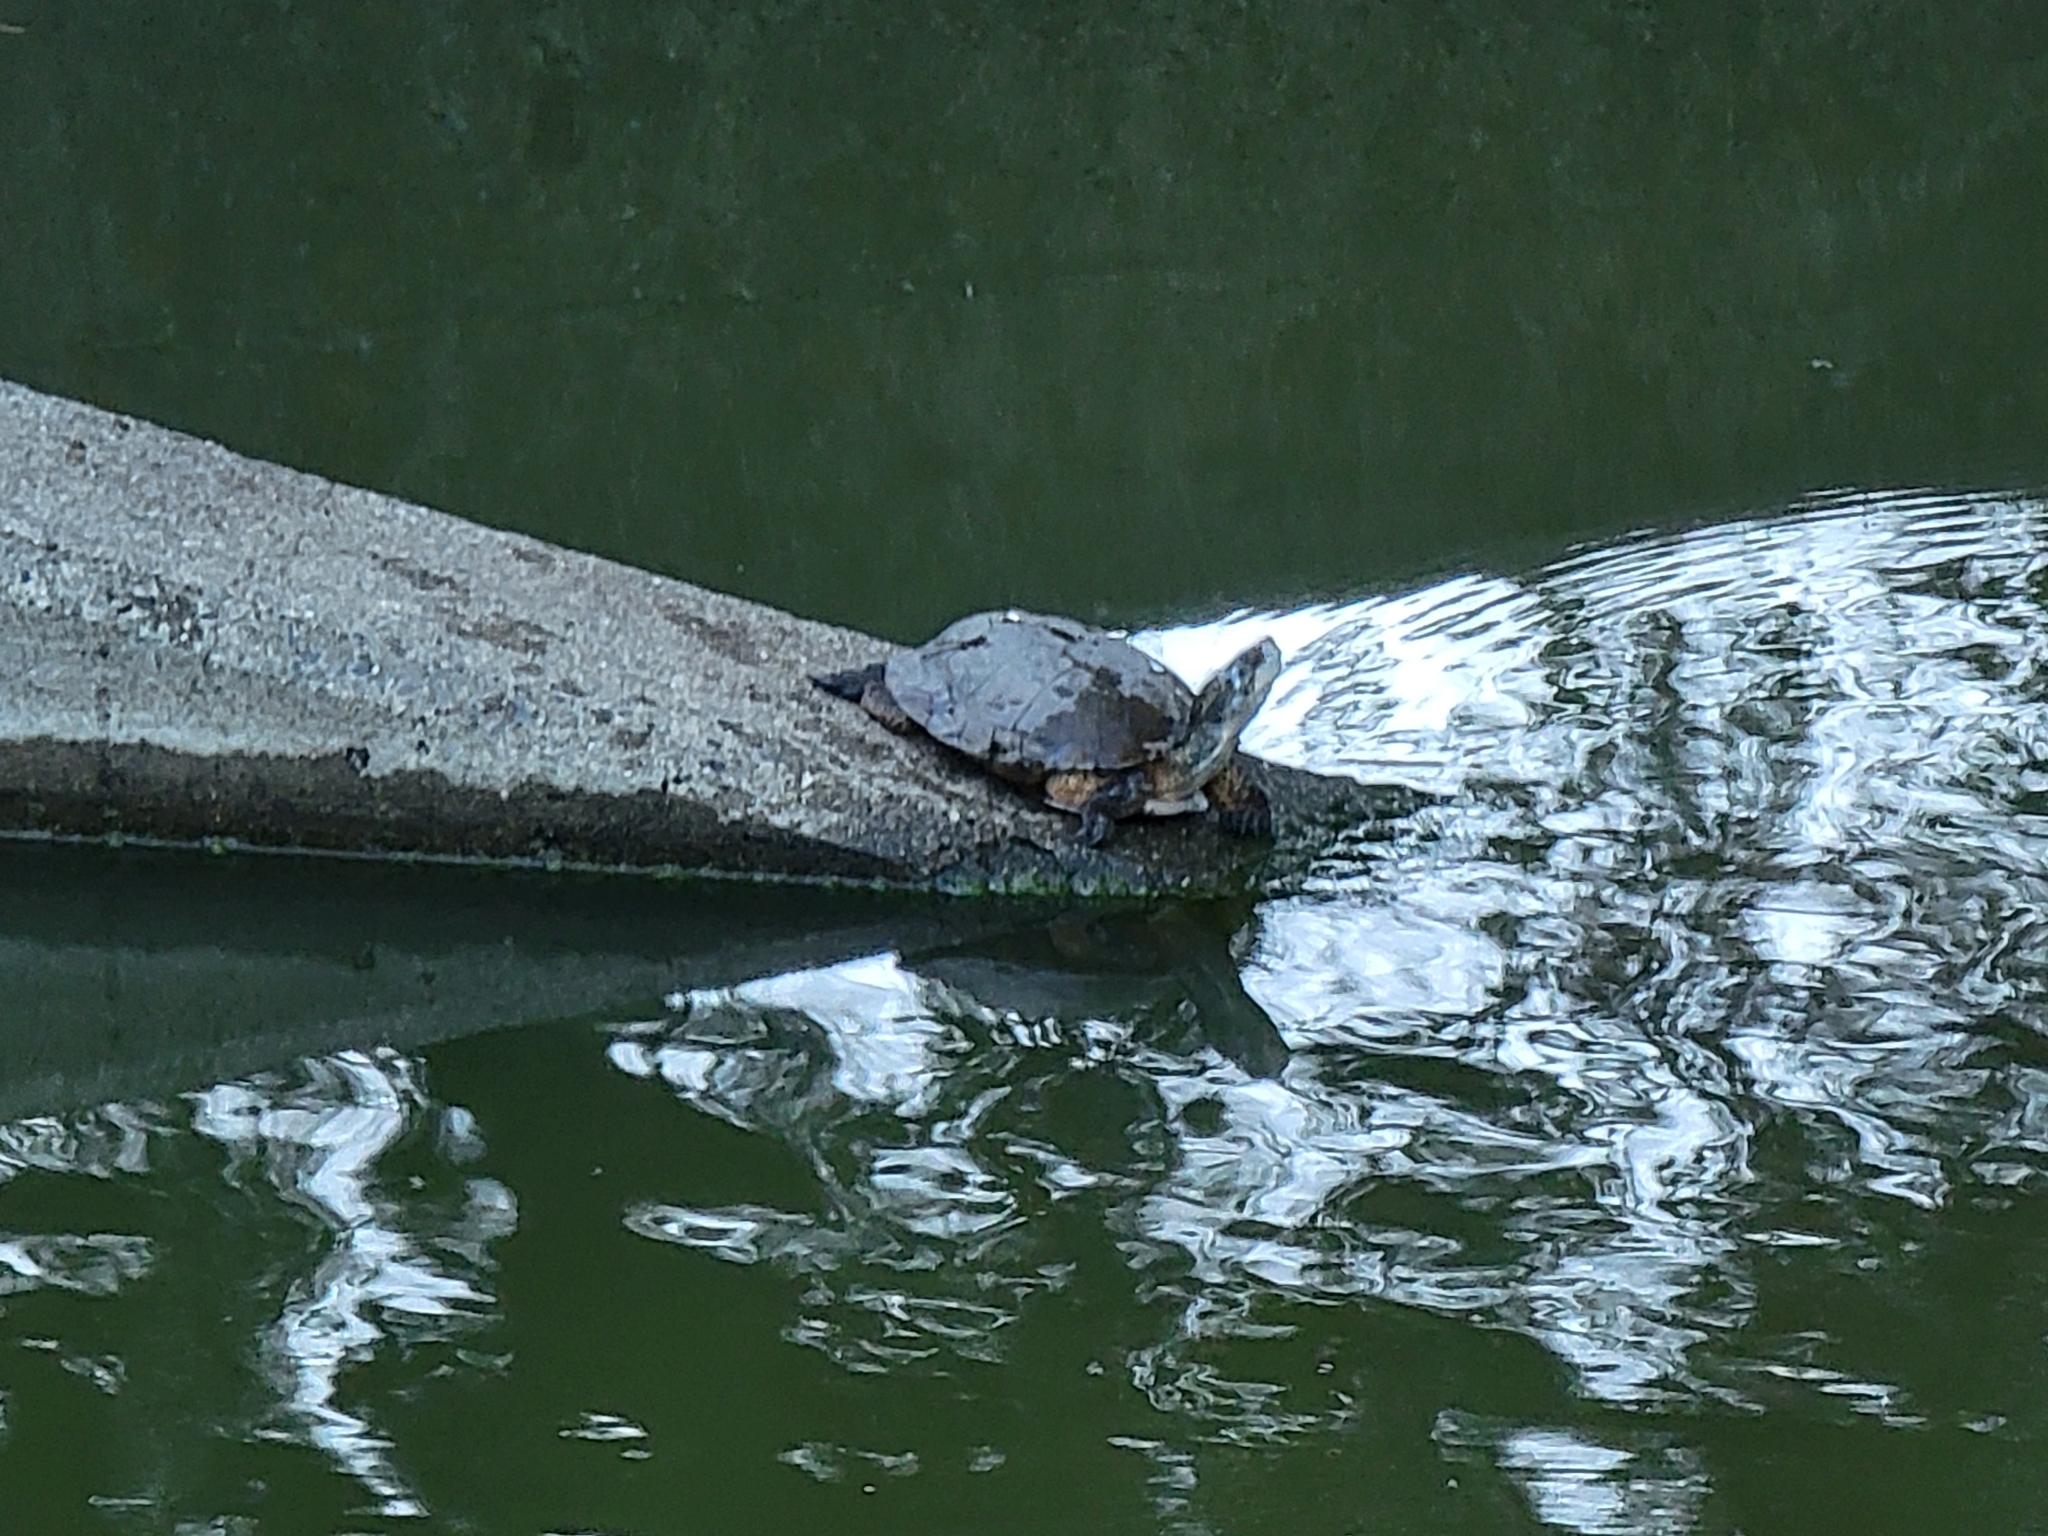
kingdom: Animalia
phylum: Chordata
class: Testudines
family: Emydidae
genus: Actinemys
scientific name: Actinemys marmorata
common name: Western pond turtle
